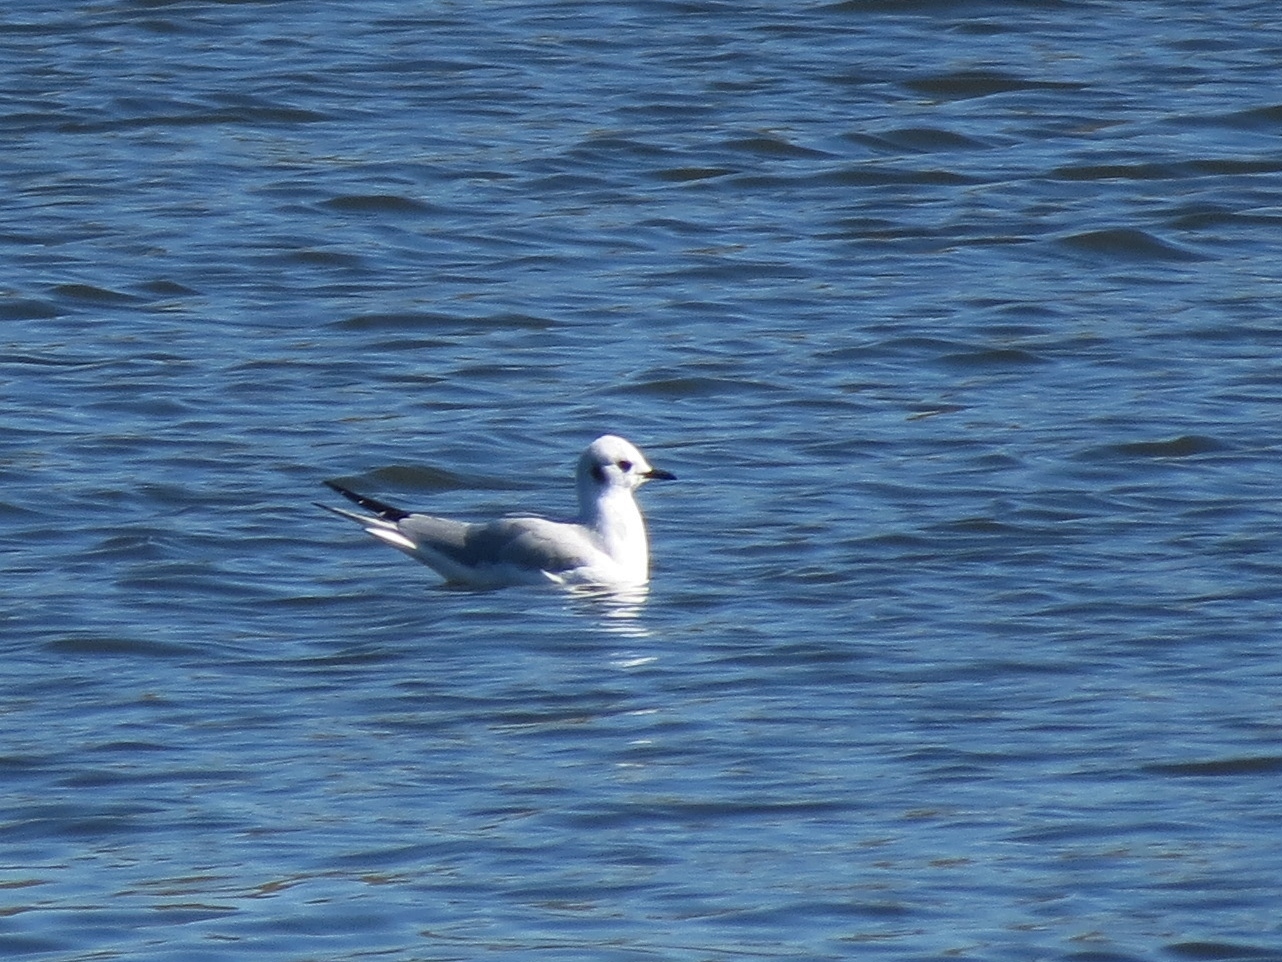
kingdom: Animalia
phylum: Chordata
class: Aves
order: Charadriiformes
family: Laridae
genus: Chroicocephalus
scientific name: Chroicocephalus philadelphia
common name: Bonaparte's gull
